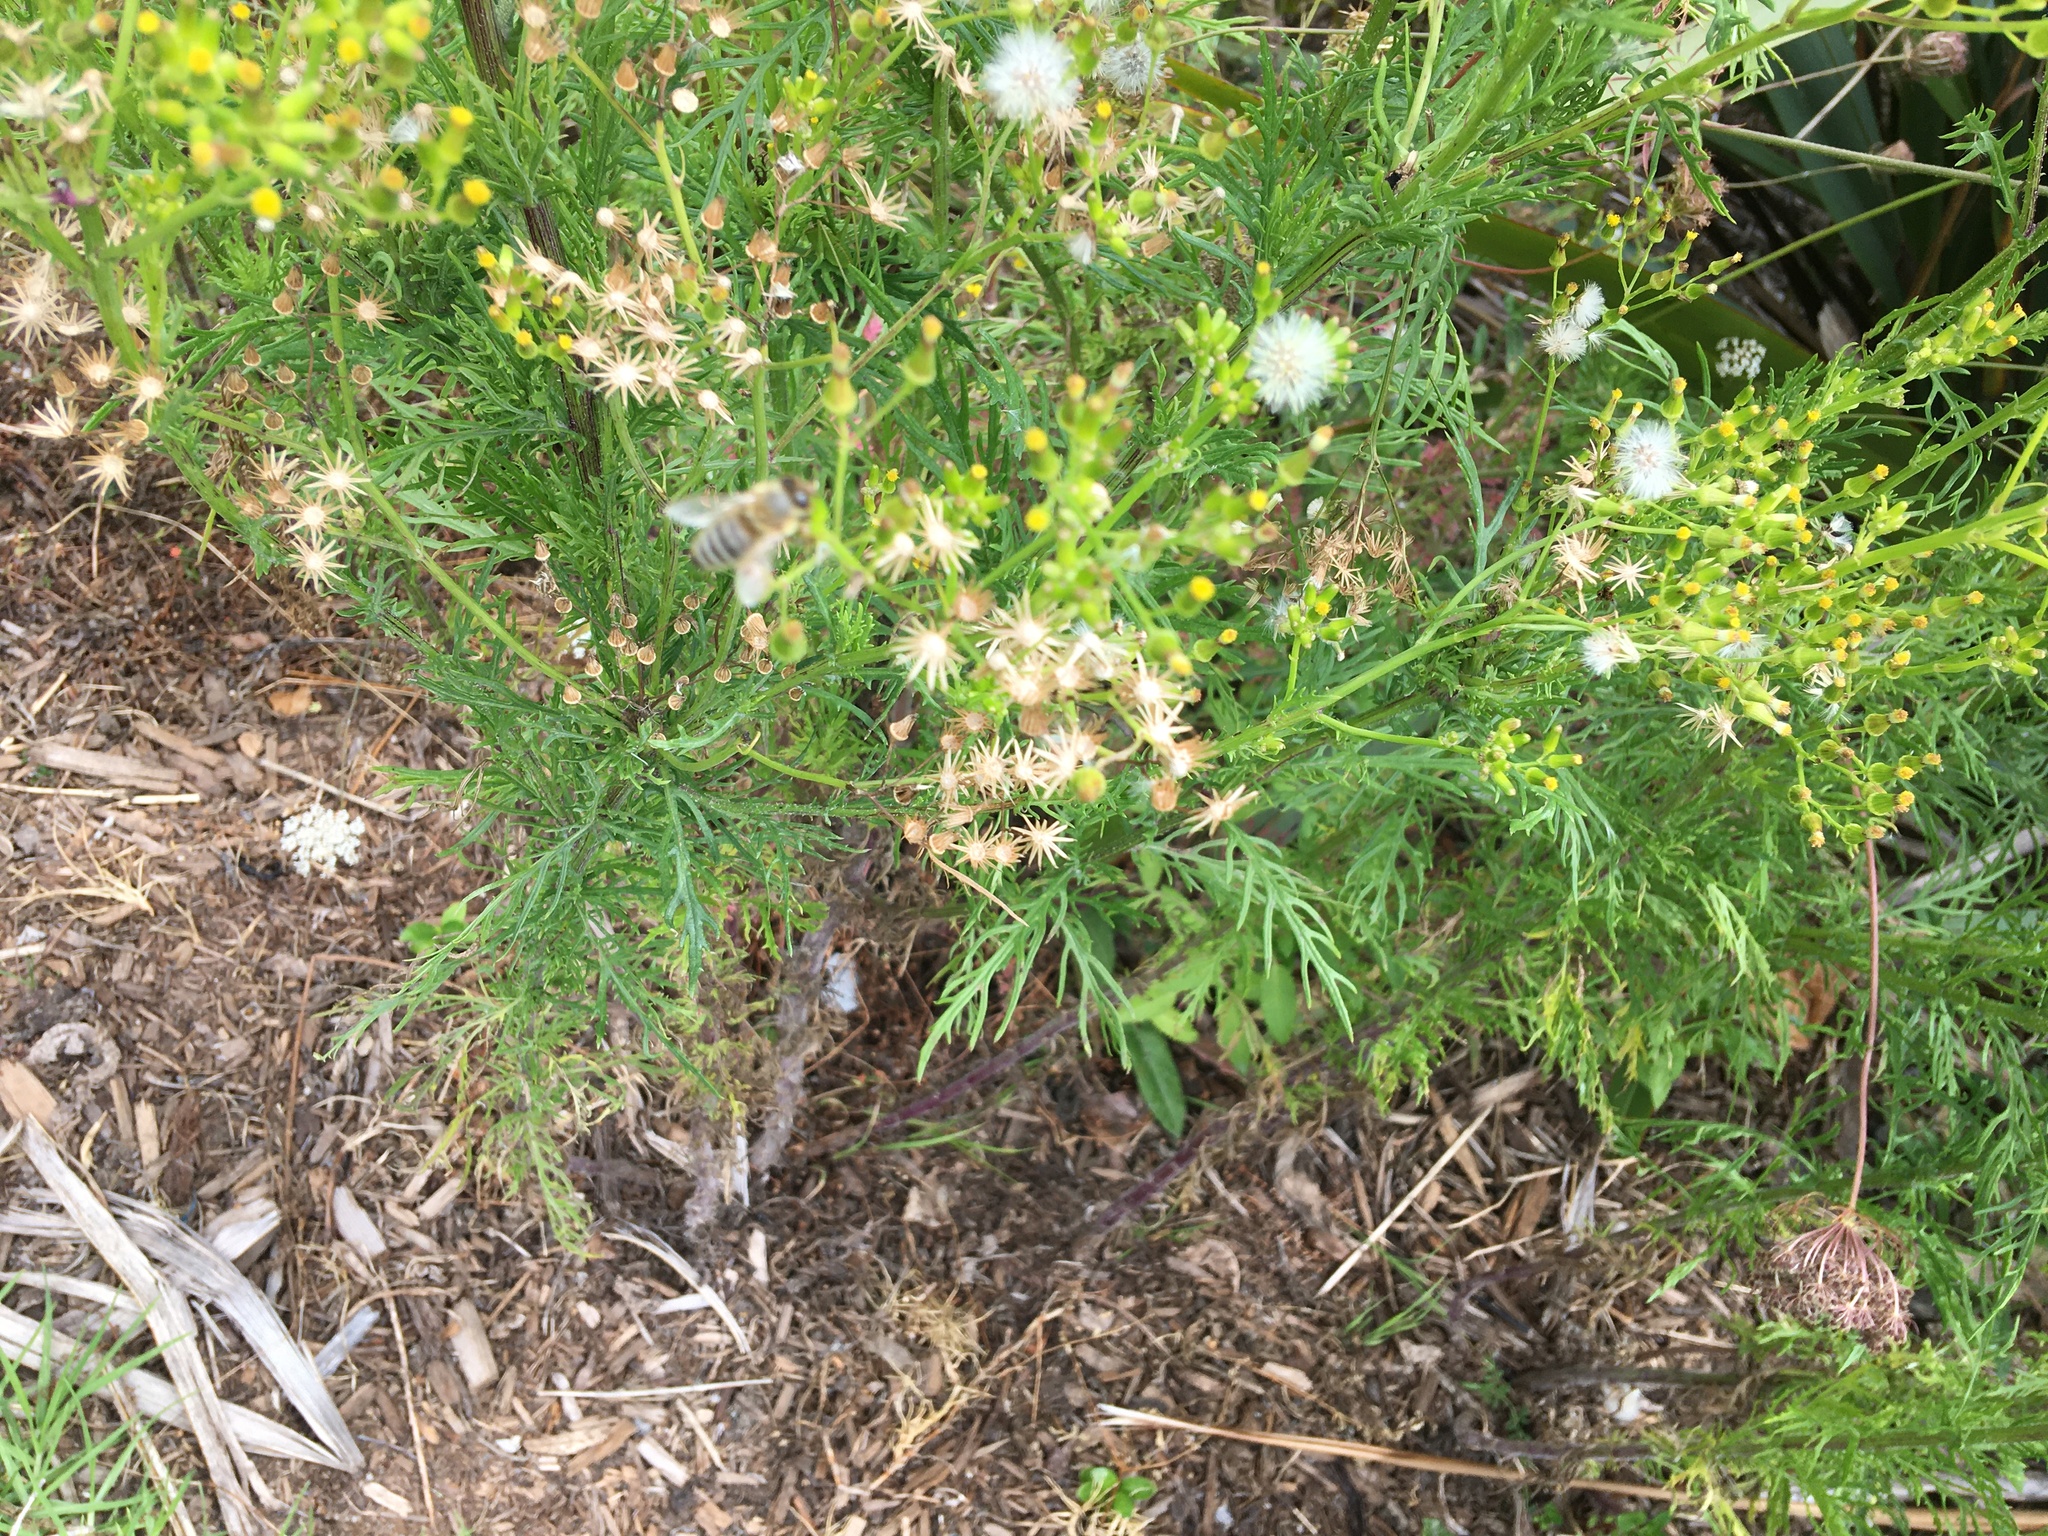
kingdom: Animalia
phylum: Arthropoda
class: Insecta
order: Hymenoptera
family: Apidae
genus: Apis
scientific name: Apis mellifera
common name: Honey bee
